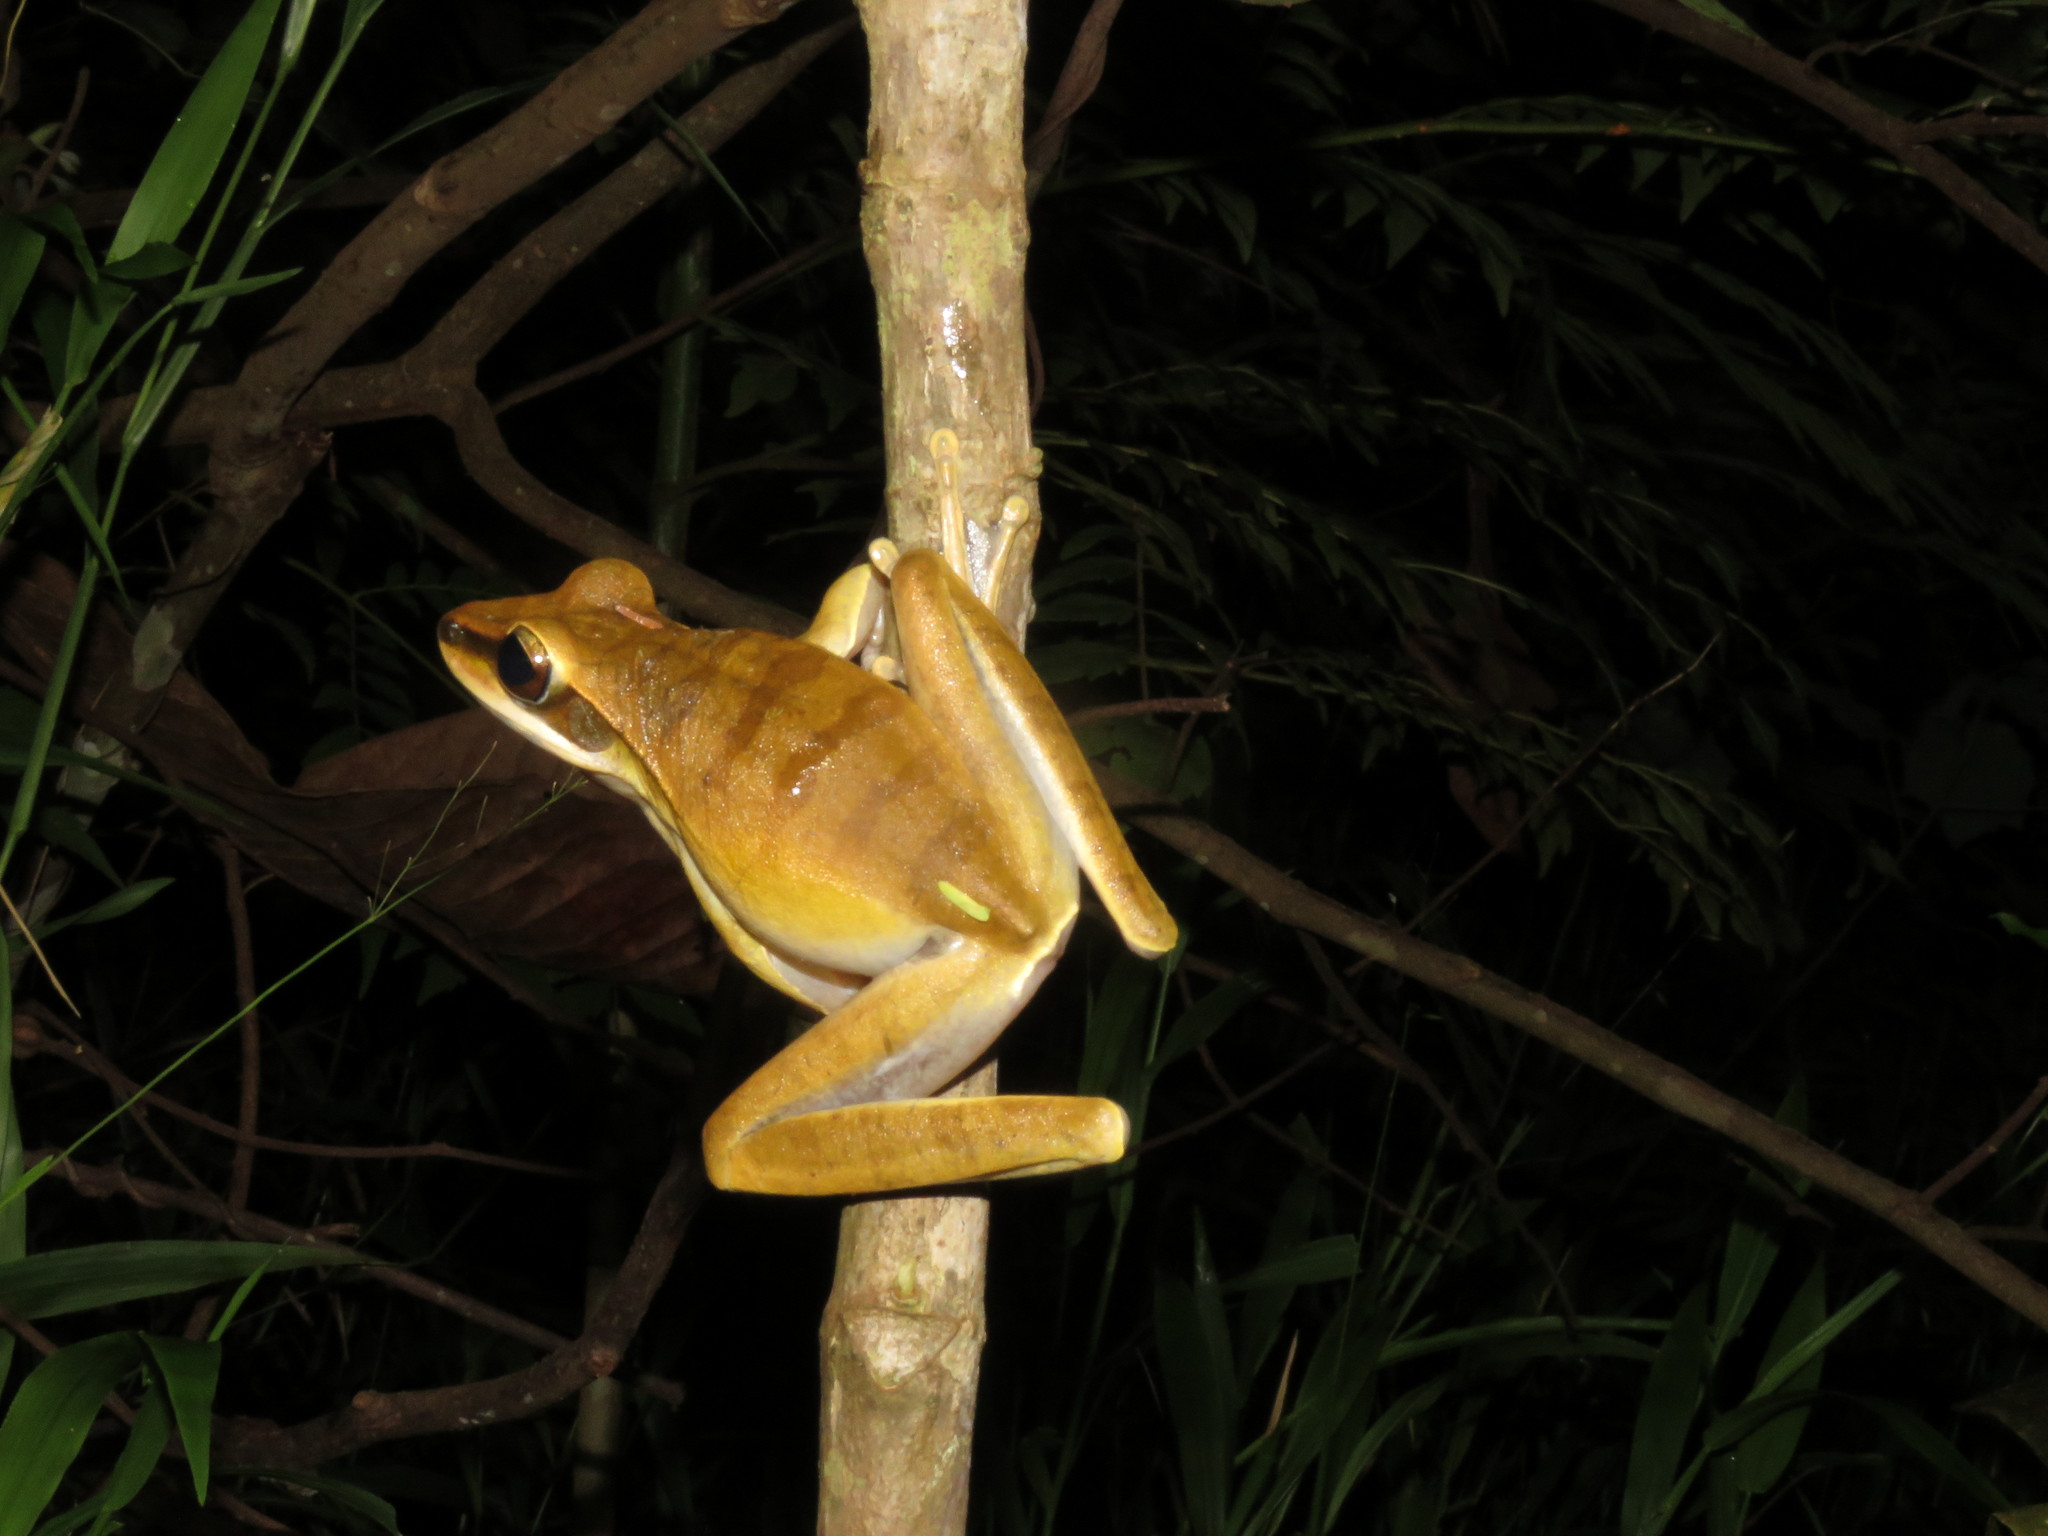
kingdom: Animalia
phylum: Chordata
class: Amphibia
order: Anura
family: Hylidae
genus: Boana
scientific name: Boana lanciformis
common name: Rana lanceolada commún
